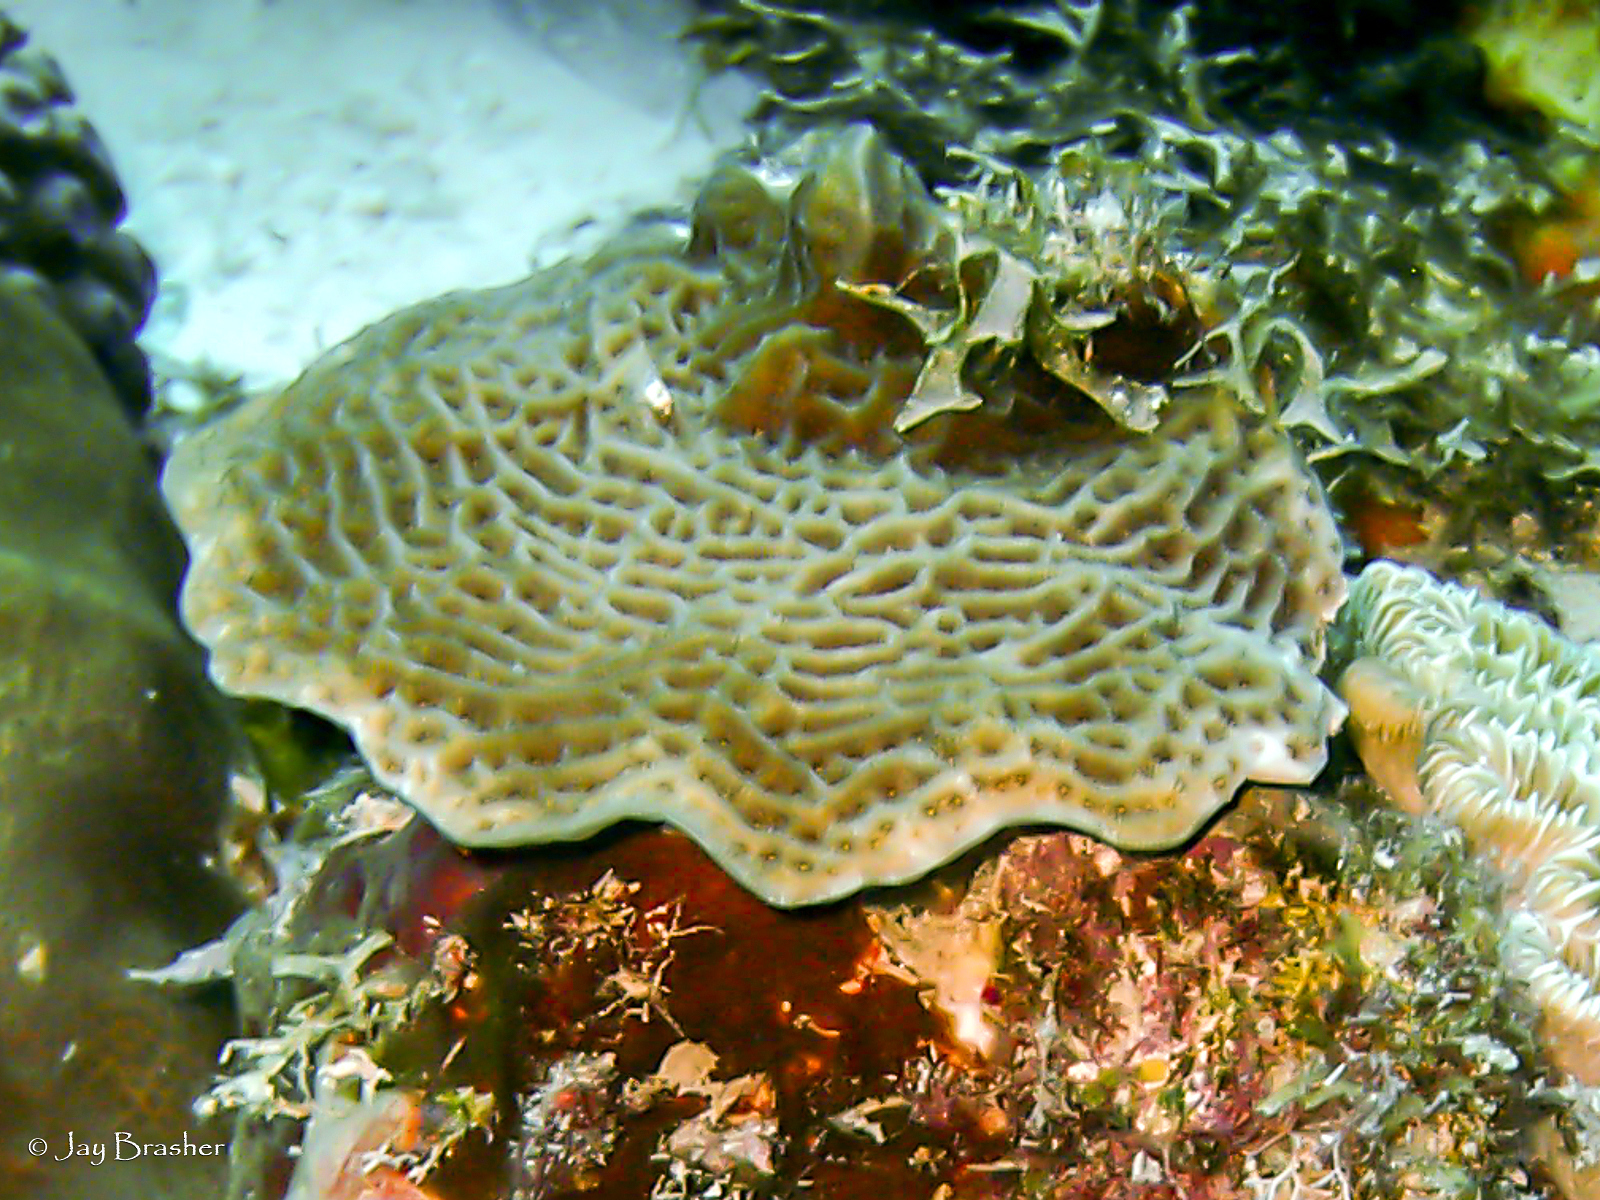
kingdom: Animalia
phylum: Cnidaria
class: Anthozoa
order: Scleractinia
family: Agariciidae
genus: Agaricia
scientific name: Agaricia agaricites
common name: Lettuce coral
